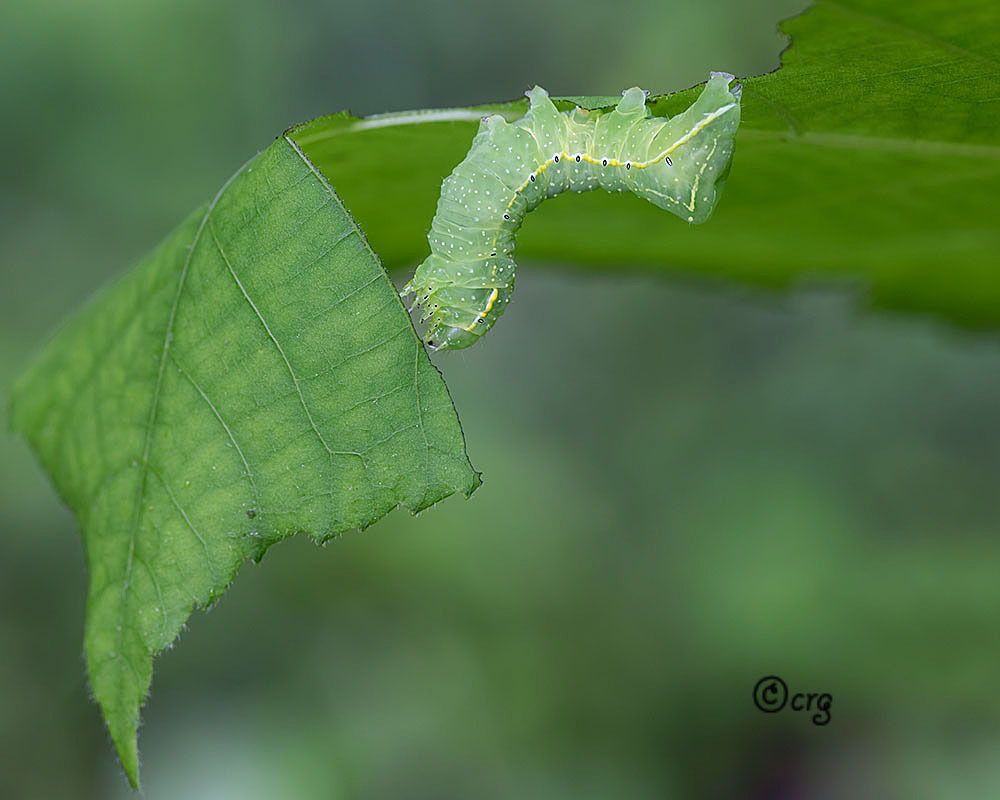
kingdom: Animalia
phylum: Arthropoda
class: Insecta
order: Lepidoptera
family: Noctuidae
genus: Amphipyra
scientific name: Amphipyra pyramidoides
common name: American copper underwing
